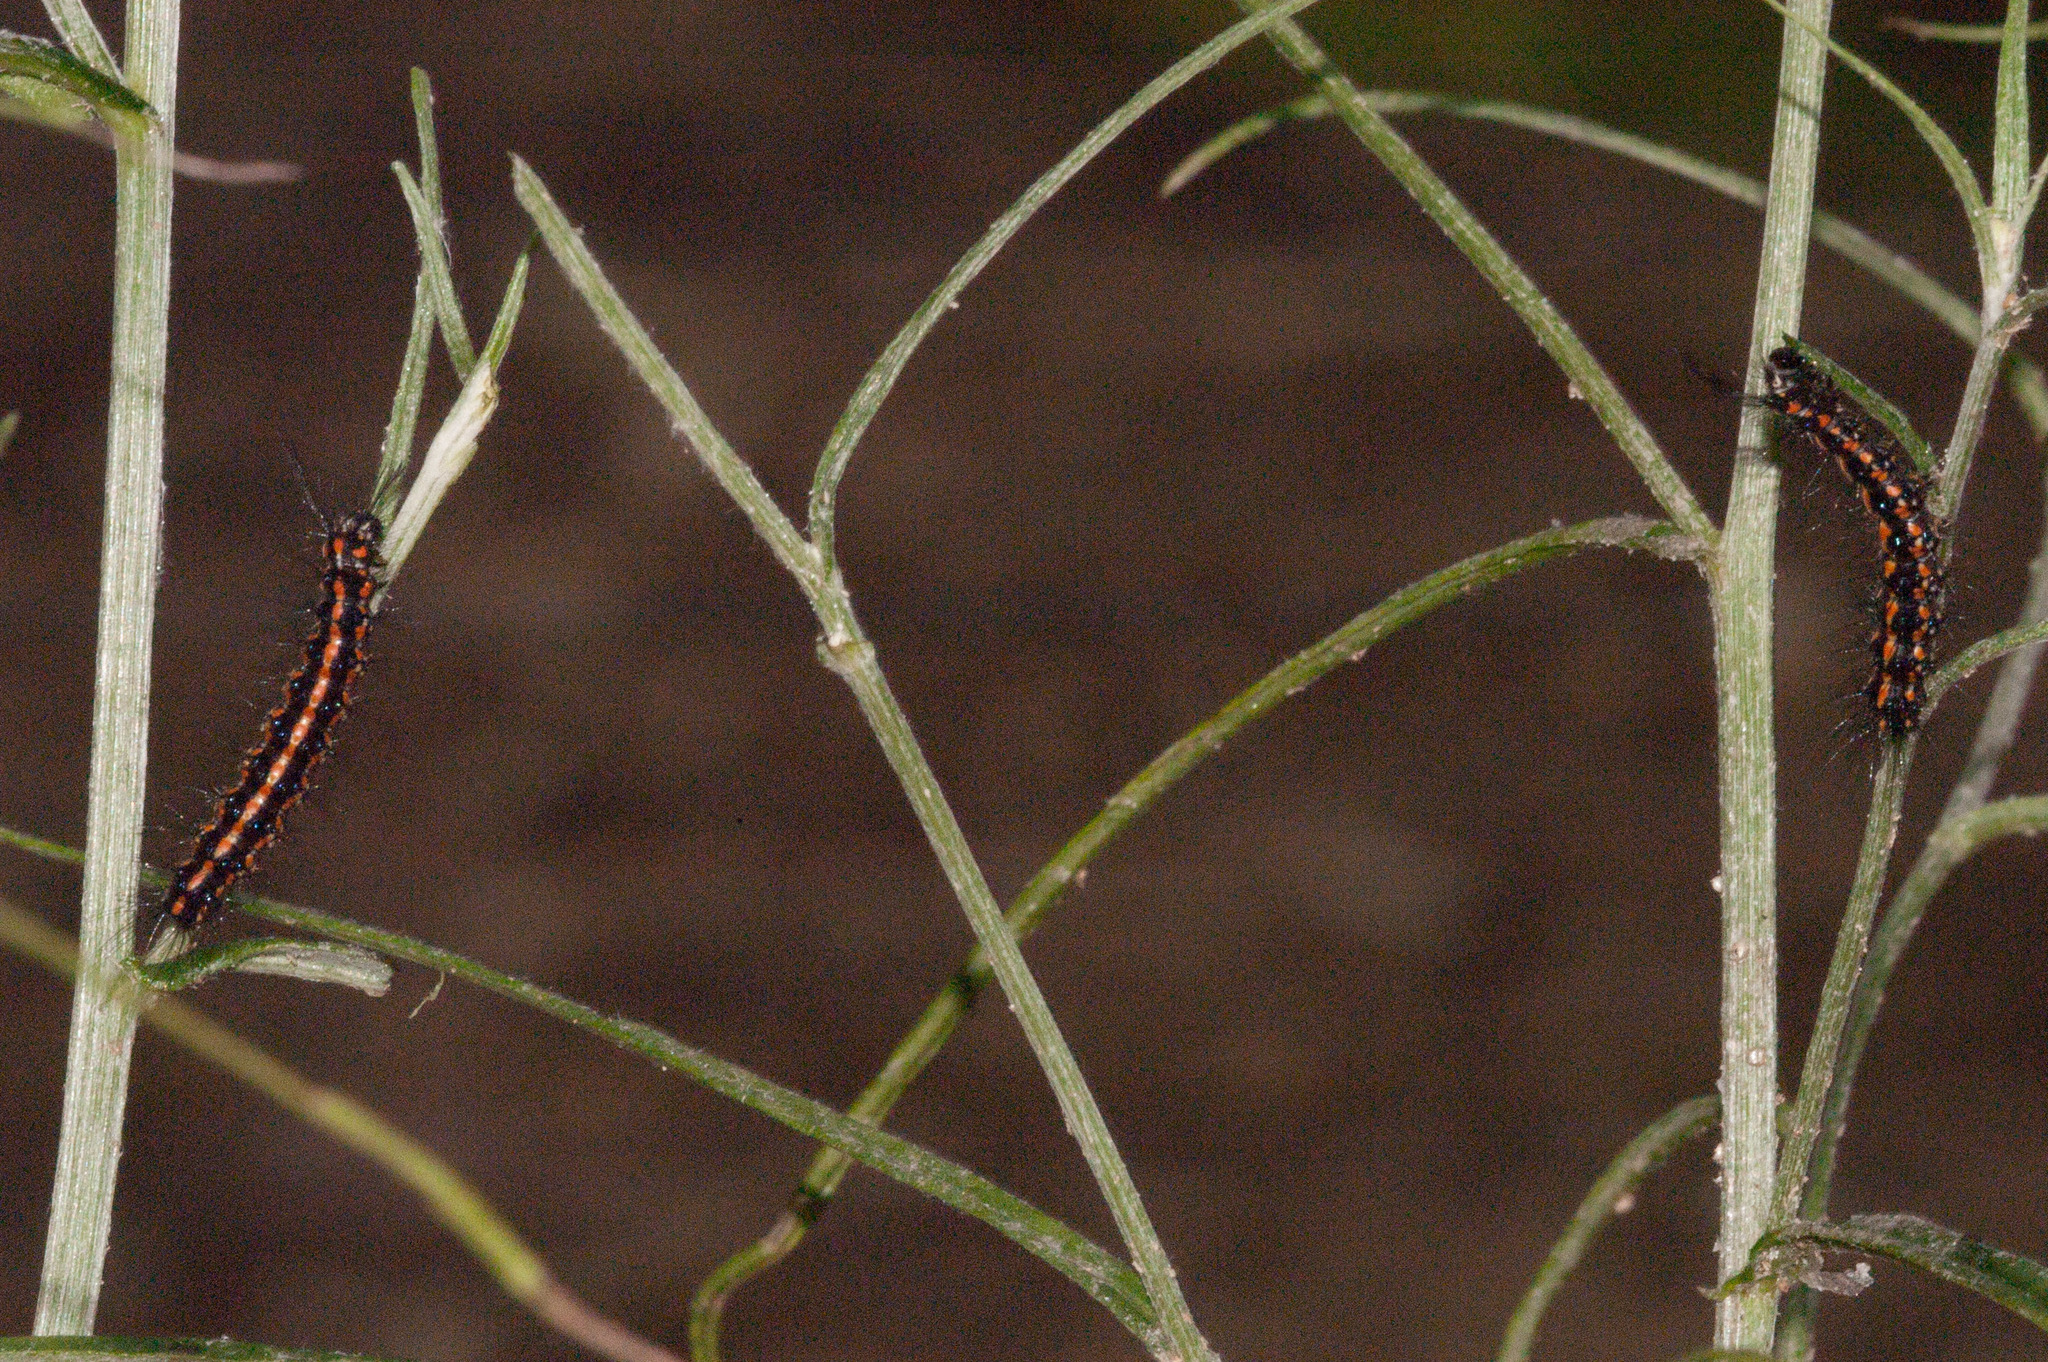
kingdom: Animalia
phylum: Arthropoda
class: Insecta
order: Lepidoptera
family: Erebidae
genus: Nyctemera
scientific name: Nyctemera amicus
